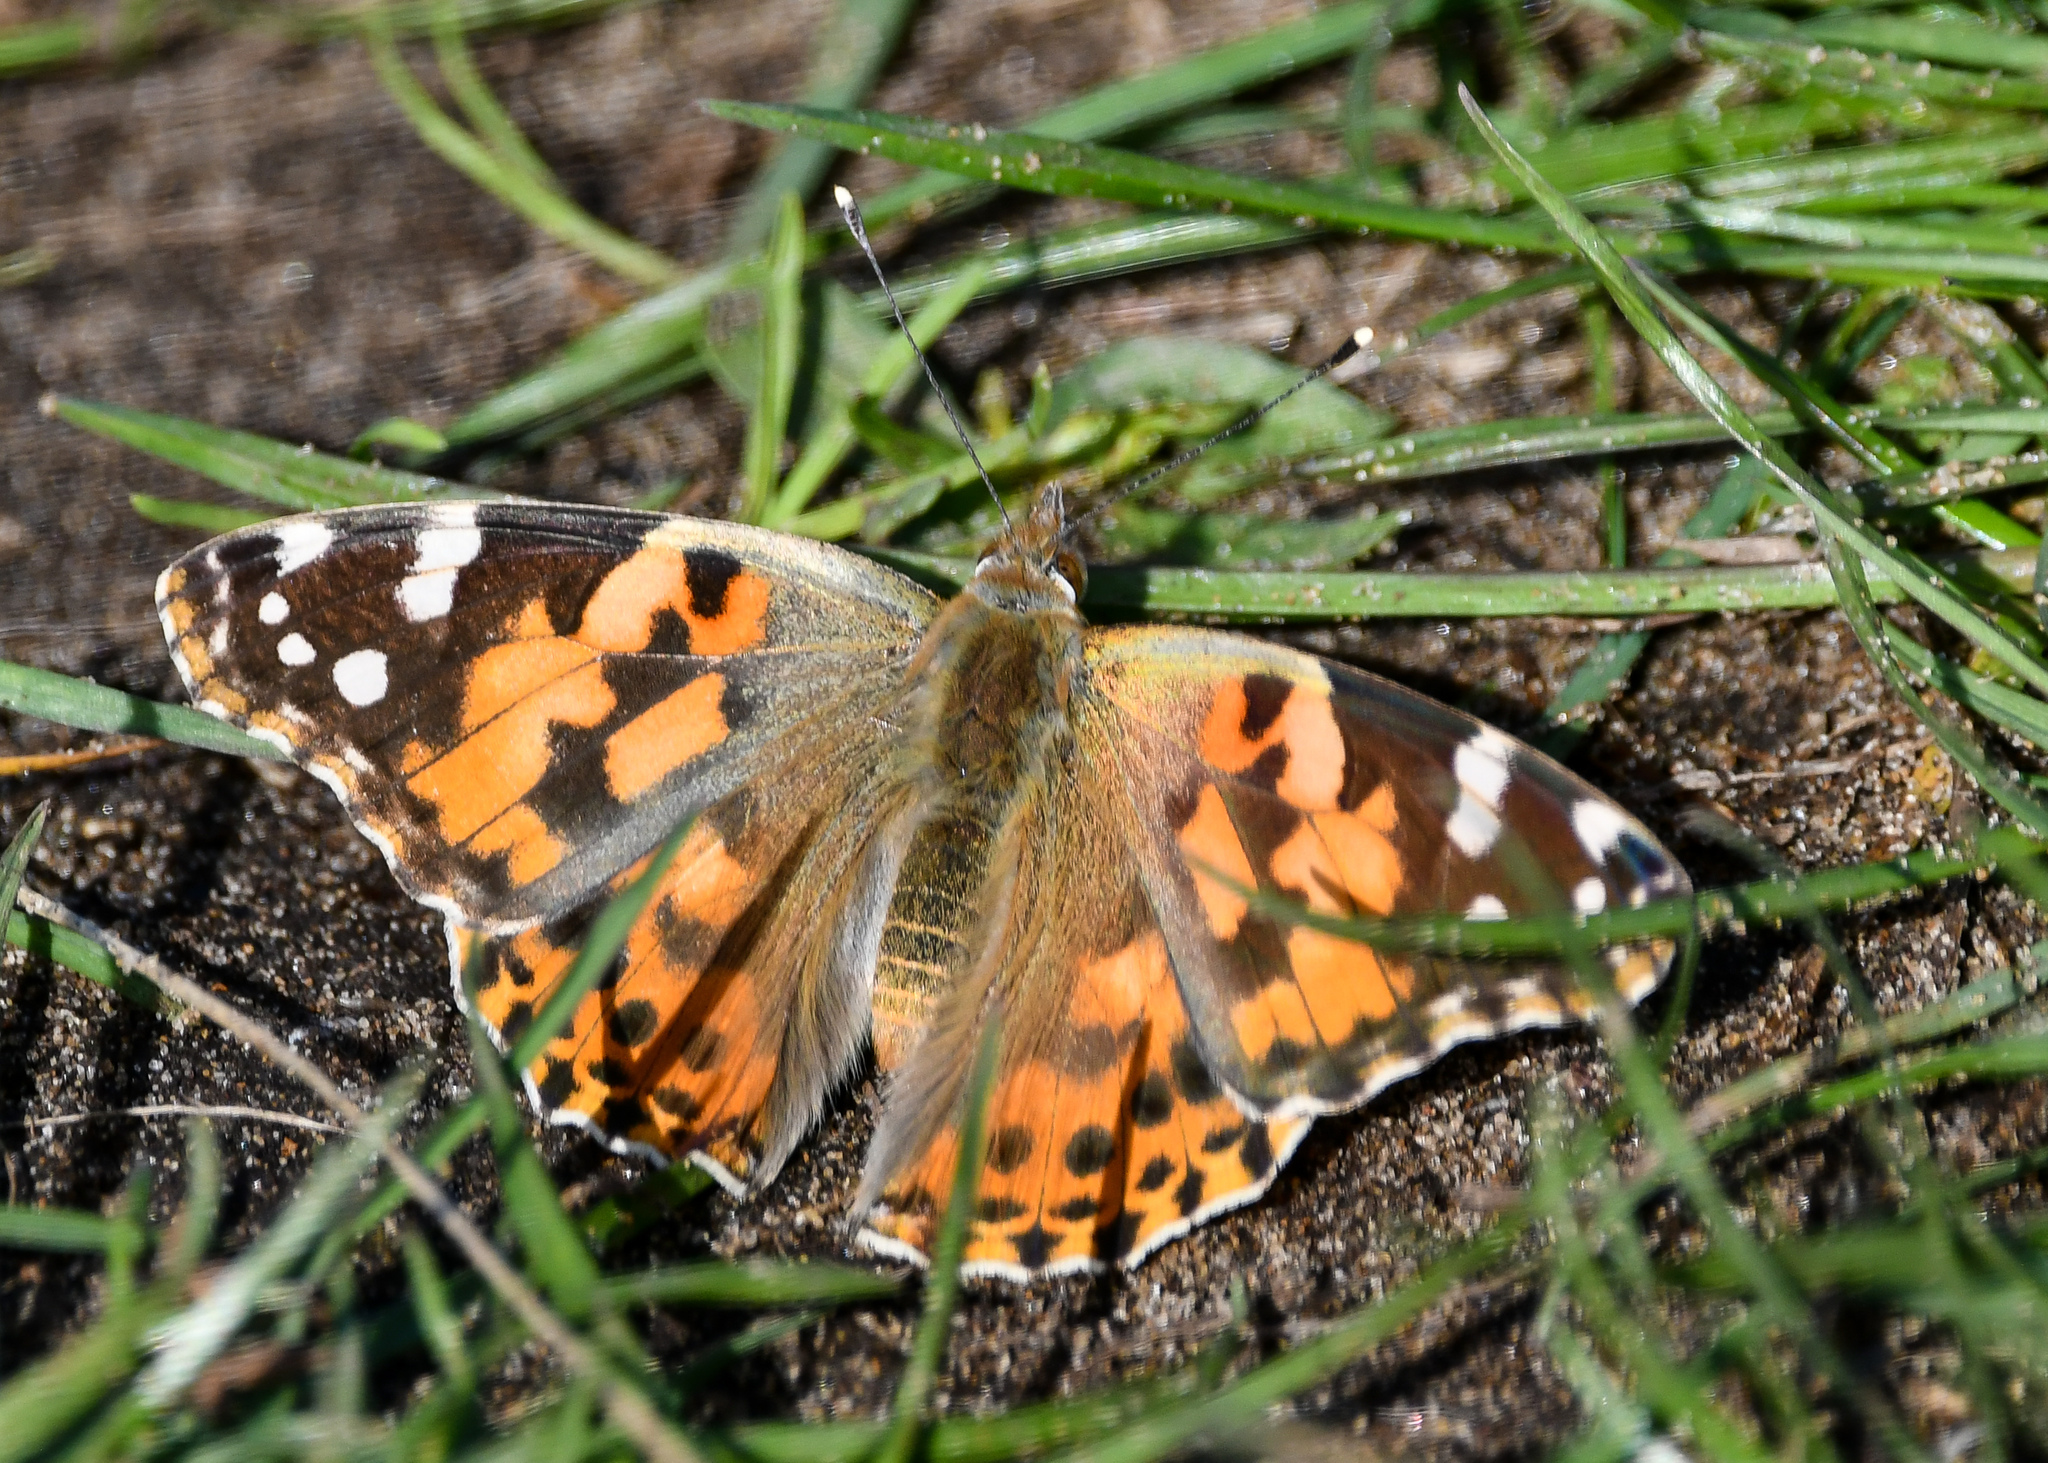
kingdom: Animalia
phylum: Arthropoda
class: Insecta
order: Lepidoptera
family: Nymphalidae
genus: Vanessa
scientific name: Vanessa cardui
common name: Painted lady
